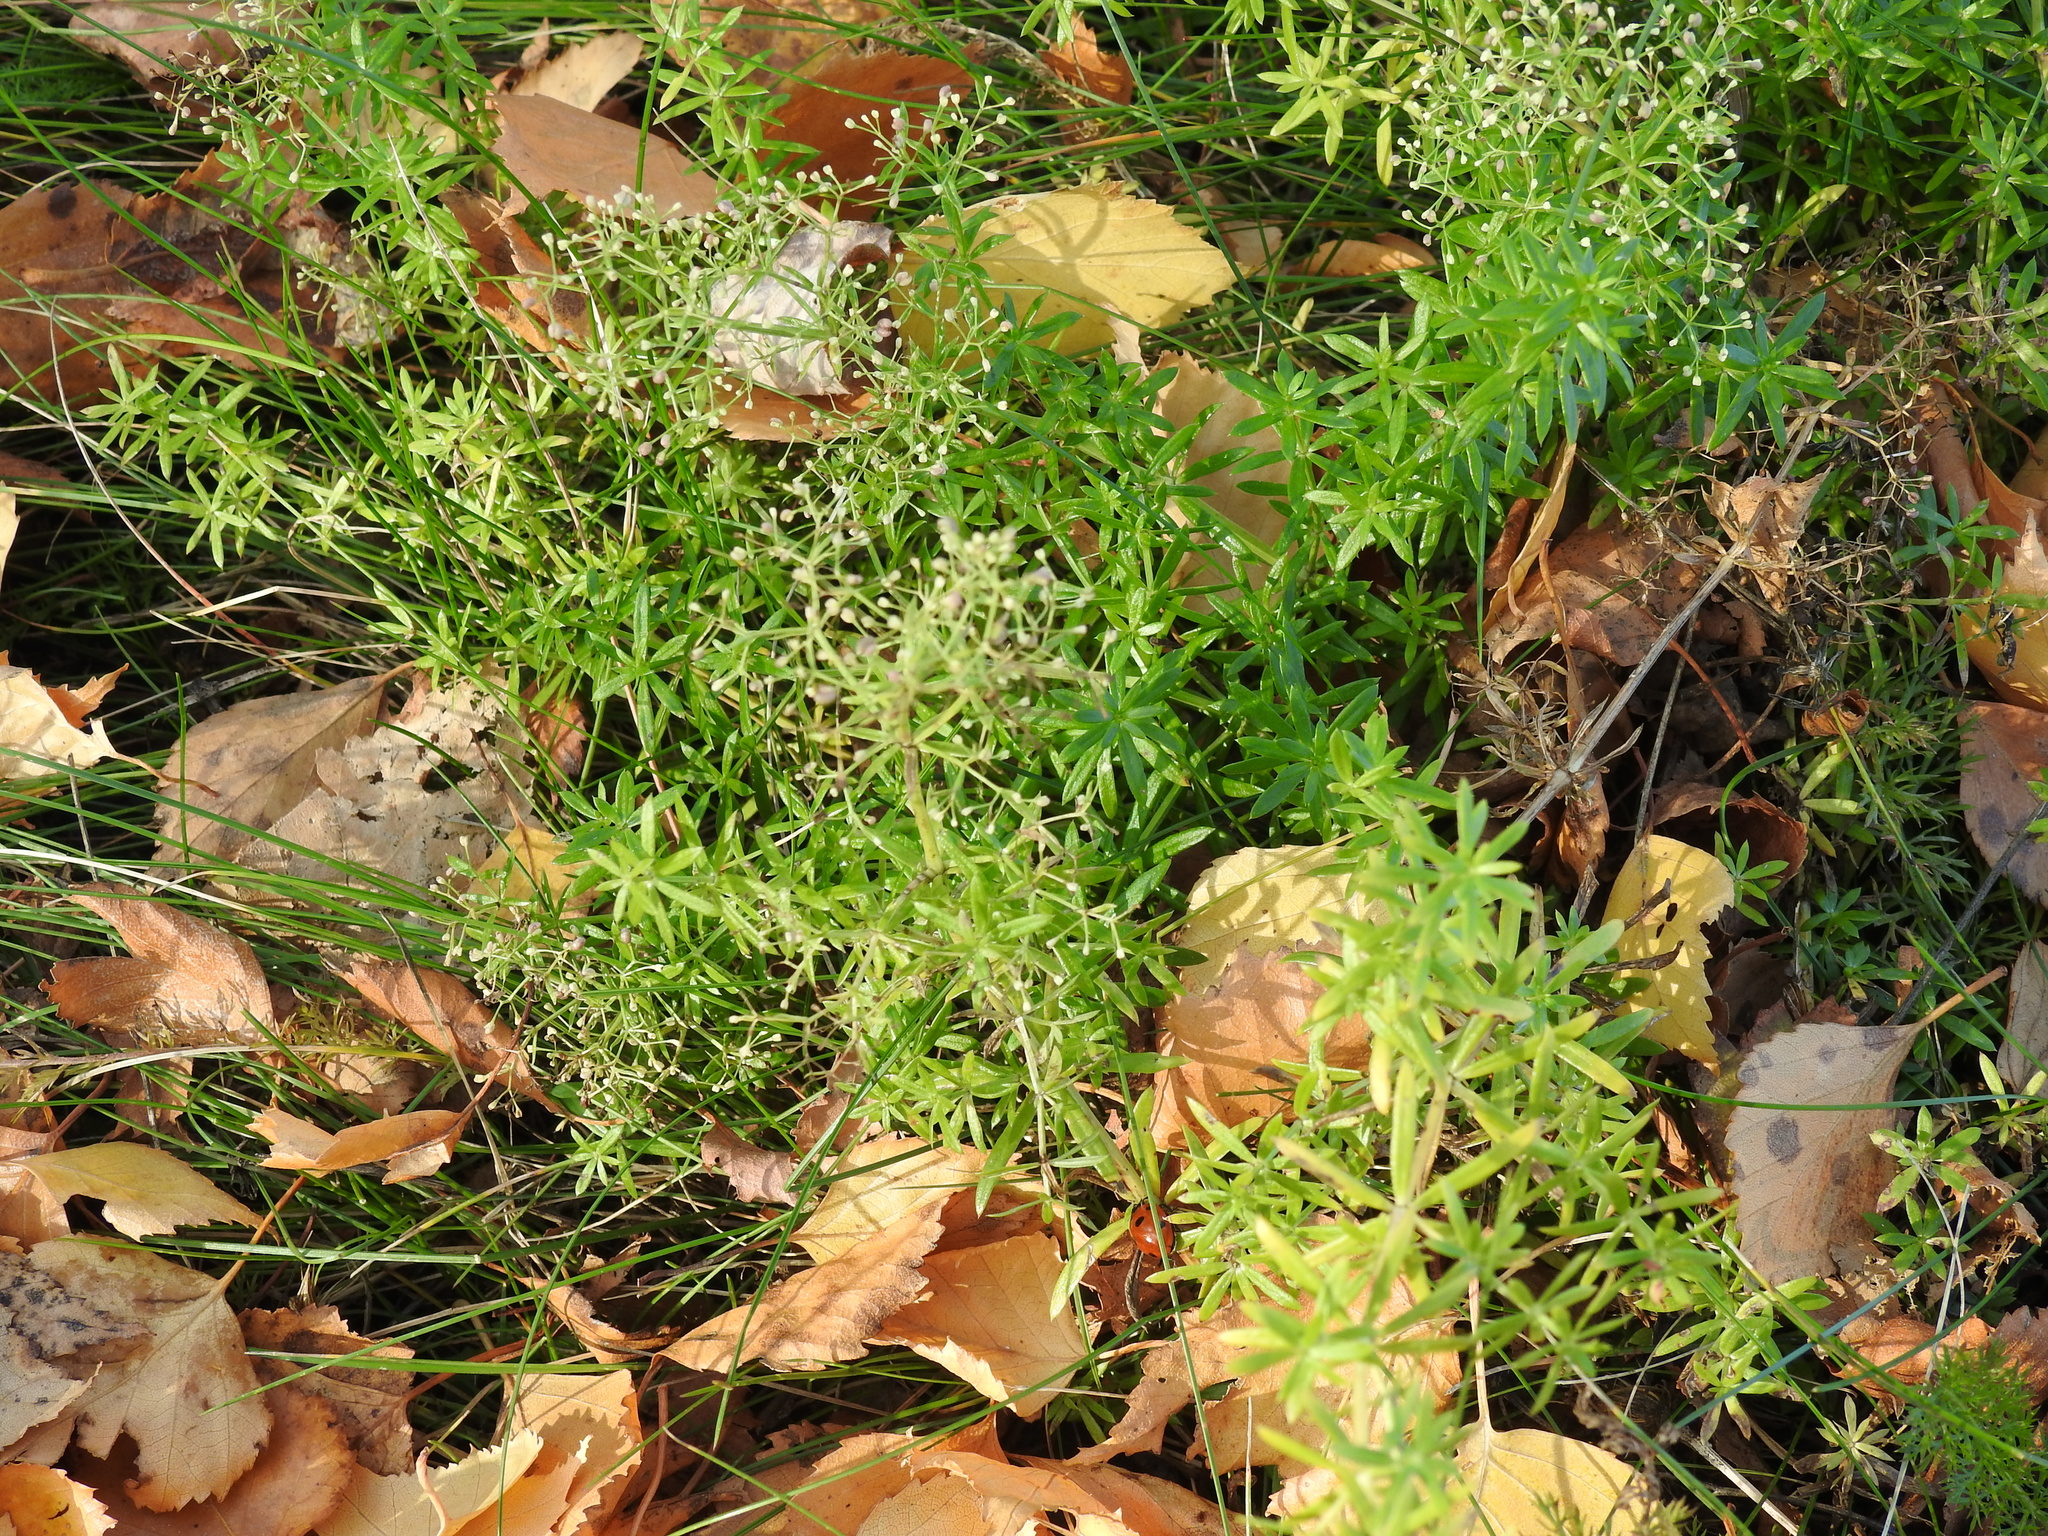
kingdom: Plantae
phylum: Tracheophyta
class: Magnoliopsida
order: Gentianales
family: Rubiaceae
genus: Galium
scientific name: Galium aparine
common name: Cleavers
